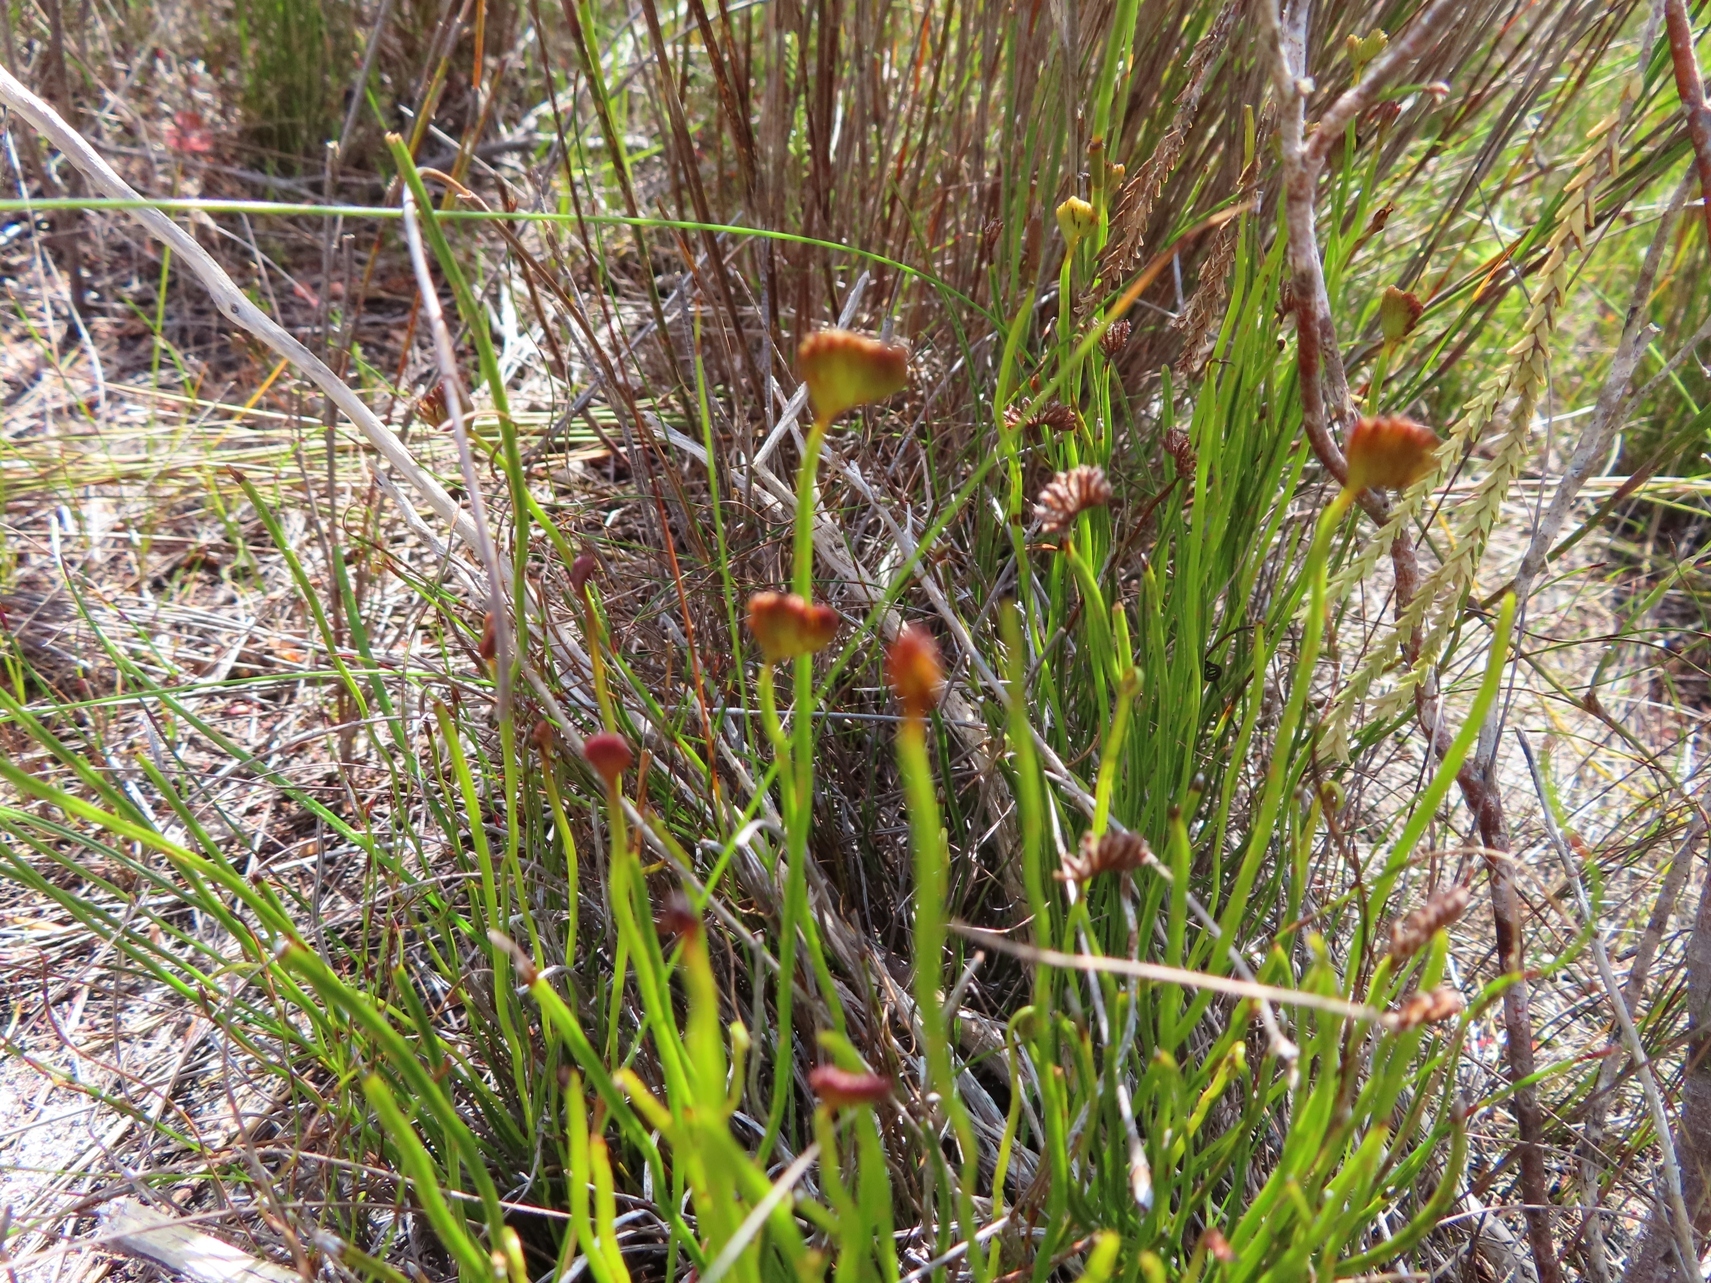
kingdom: Plantae
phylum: Tracheophyta
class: Polypodiopsida
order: Schizaeales
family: Schizaeaceae
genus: Schizaea
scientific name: Schizaea pectinata
